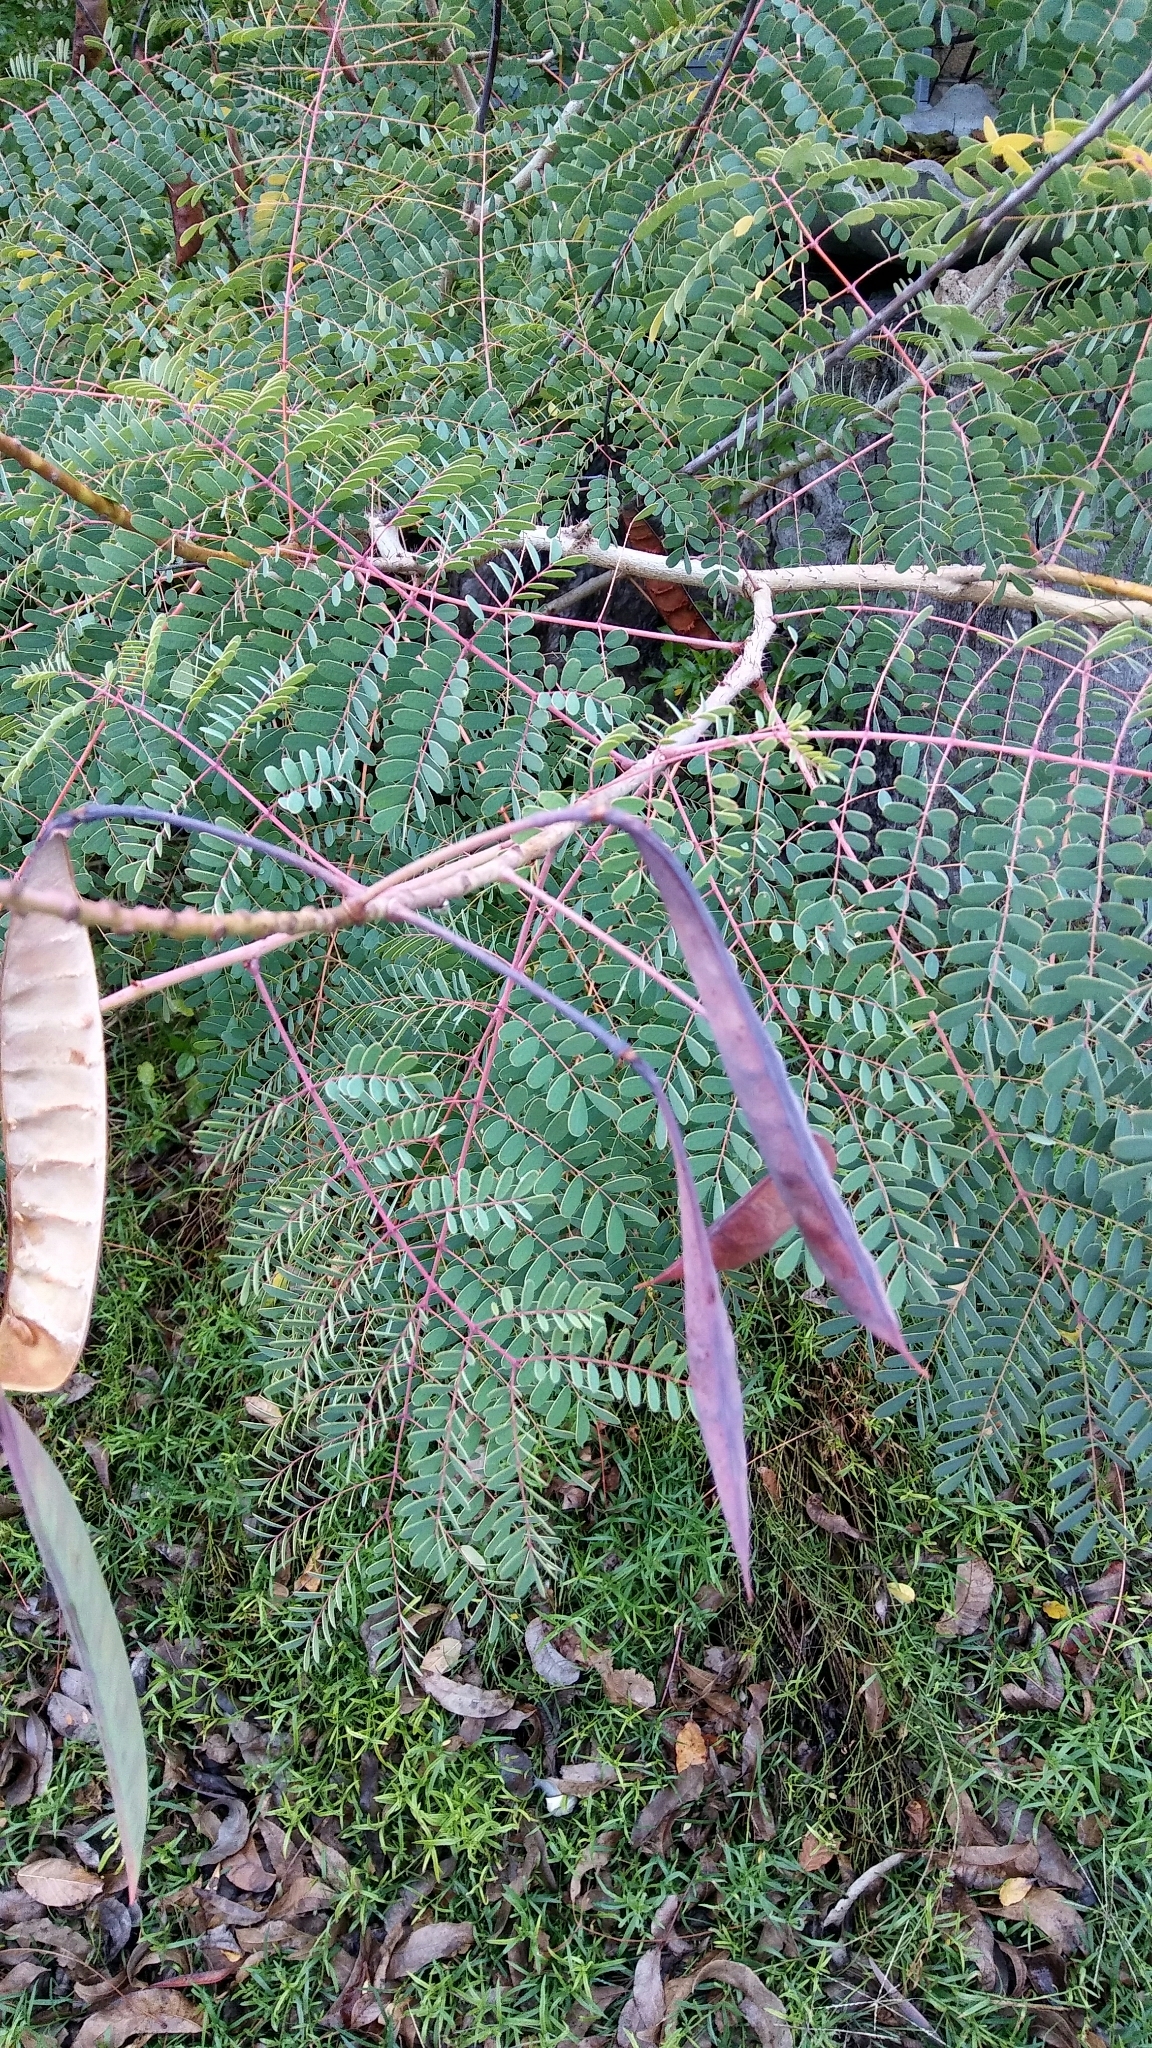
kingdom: Plantae
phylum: Tracheophyta
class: Magnoliopsida
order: Fabales
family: Fabaceae
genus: Caesalpinia
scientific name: Caesalpinia pulcherrima
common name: Pride-of-barbados
